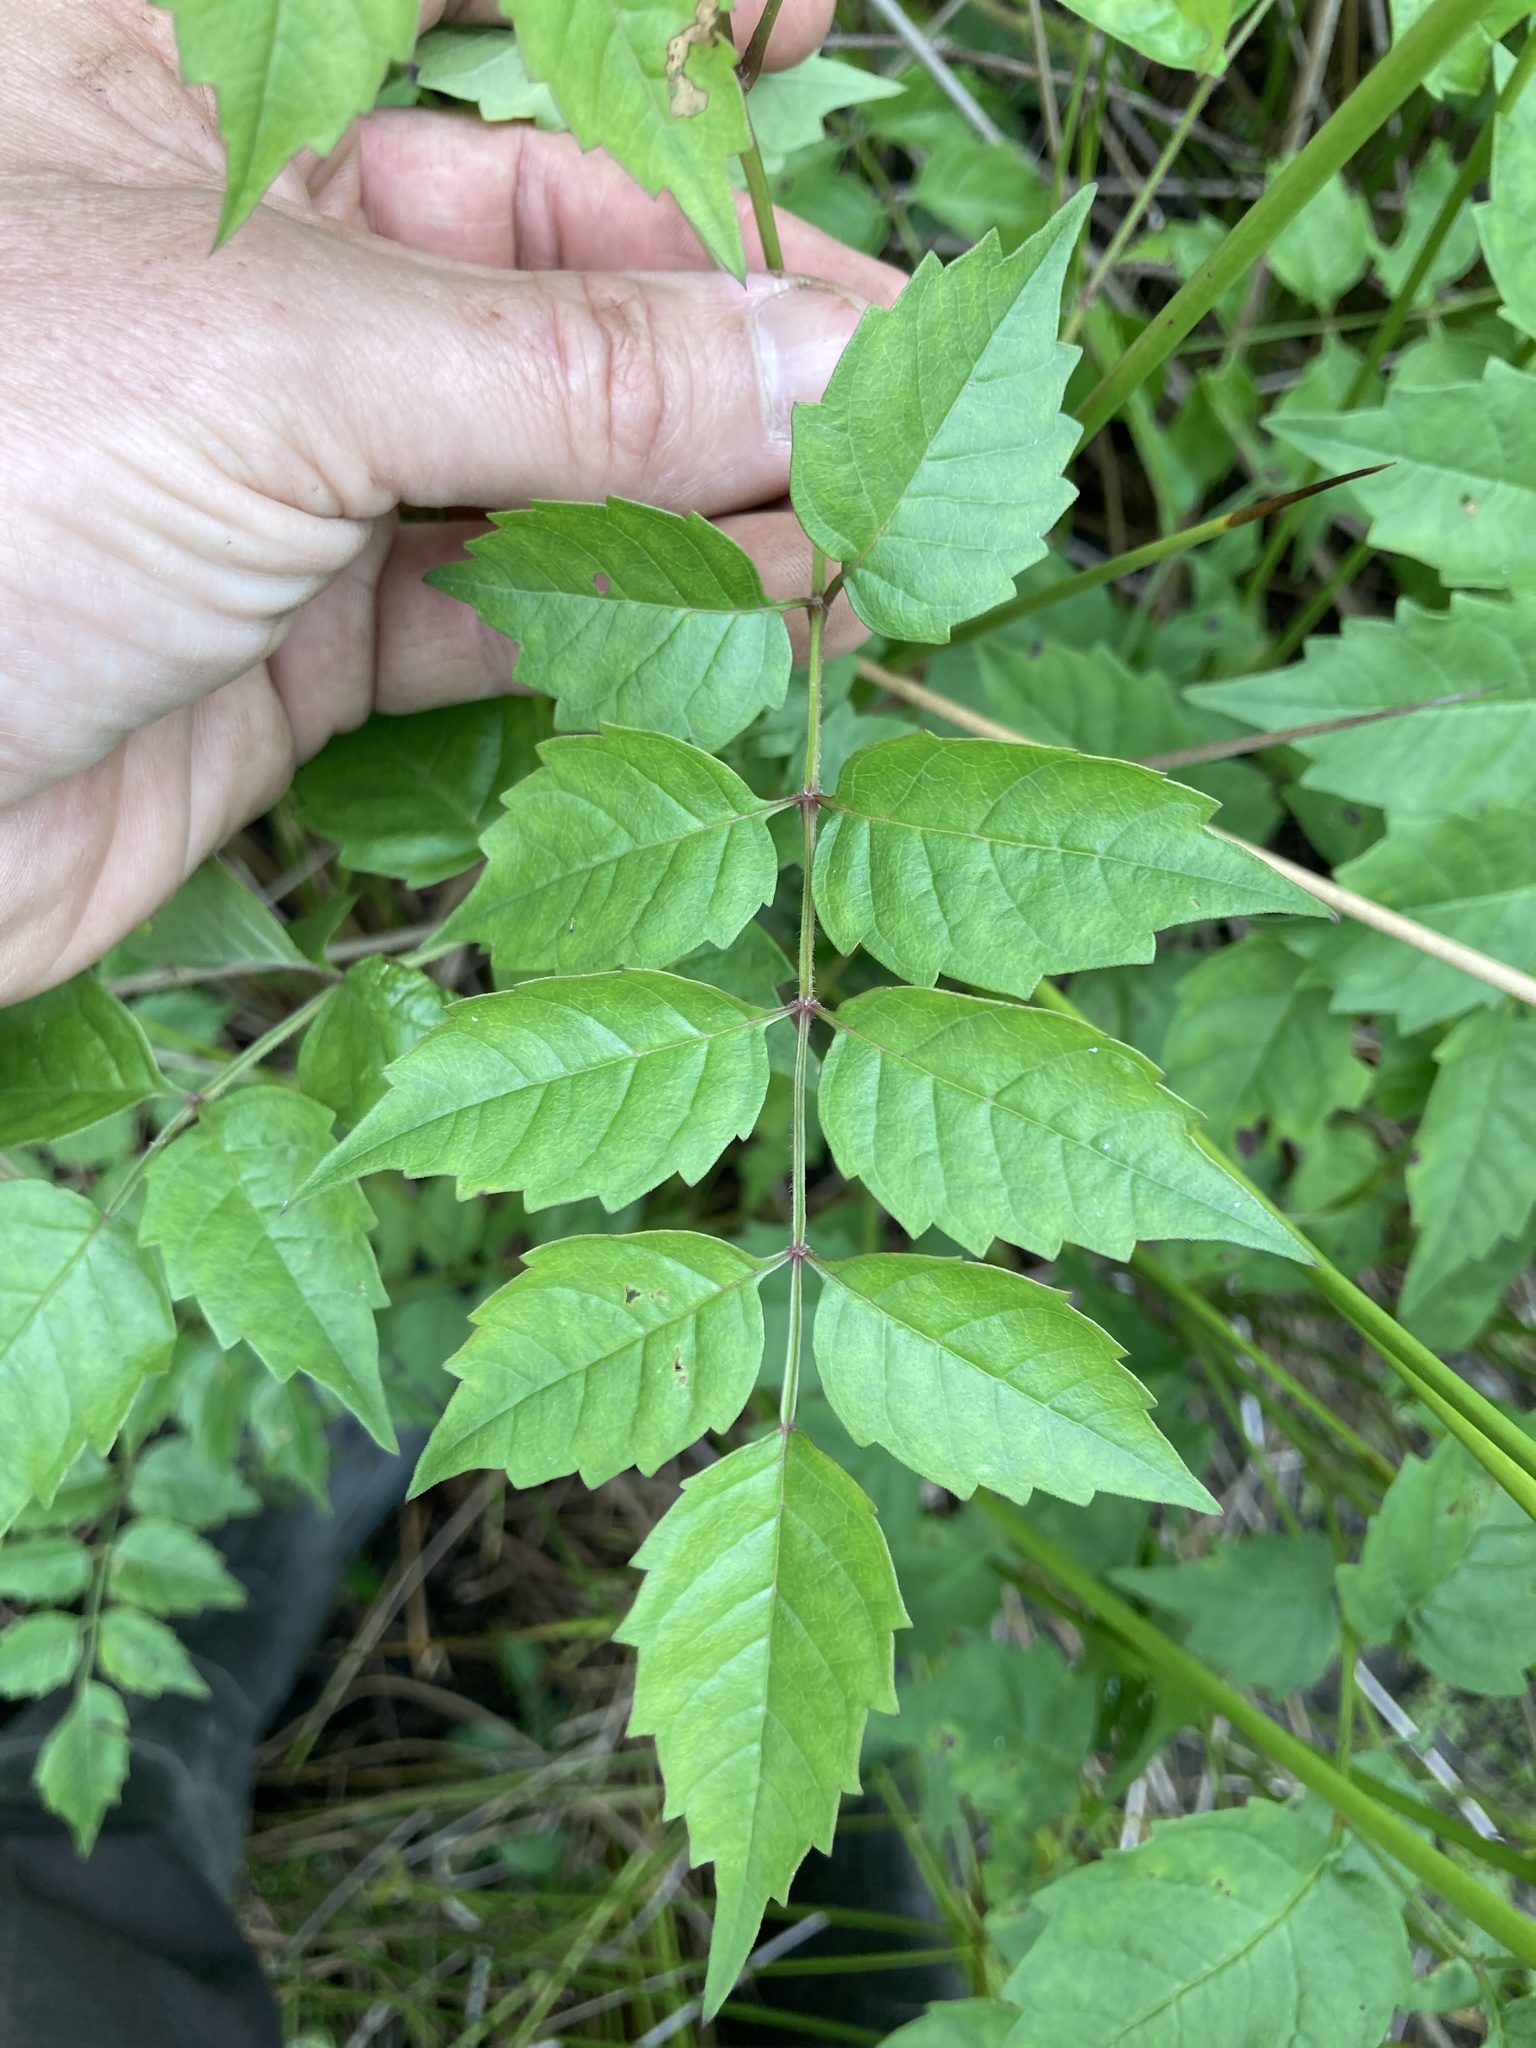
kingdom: Plantae
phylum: Tracheophyta
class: Magnoliopsida
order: Lamiales
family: Bignoniaceae
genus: Campsis
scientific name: Campsis radicans
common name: Trumpet-creeper
